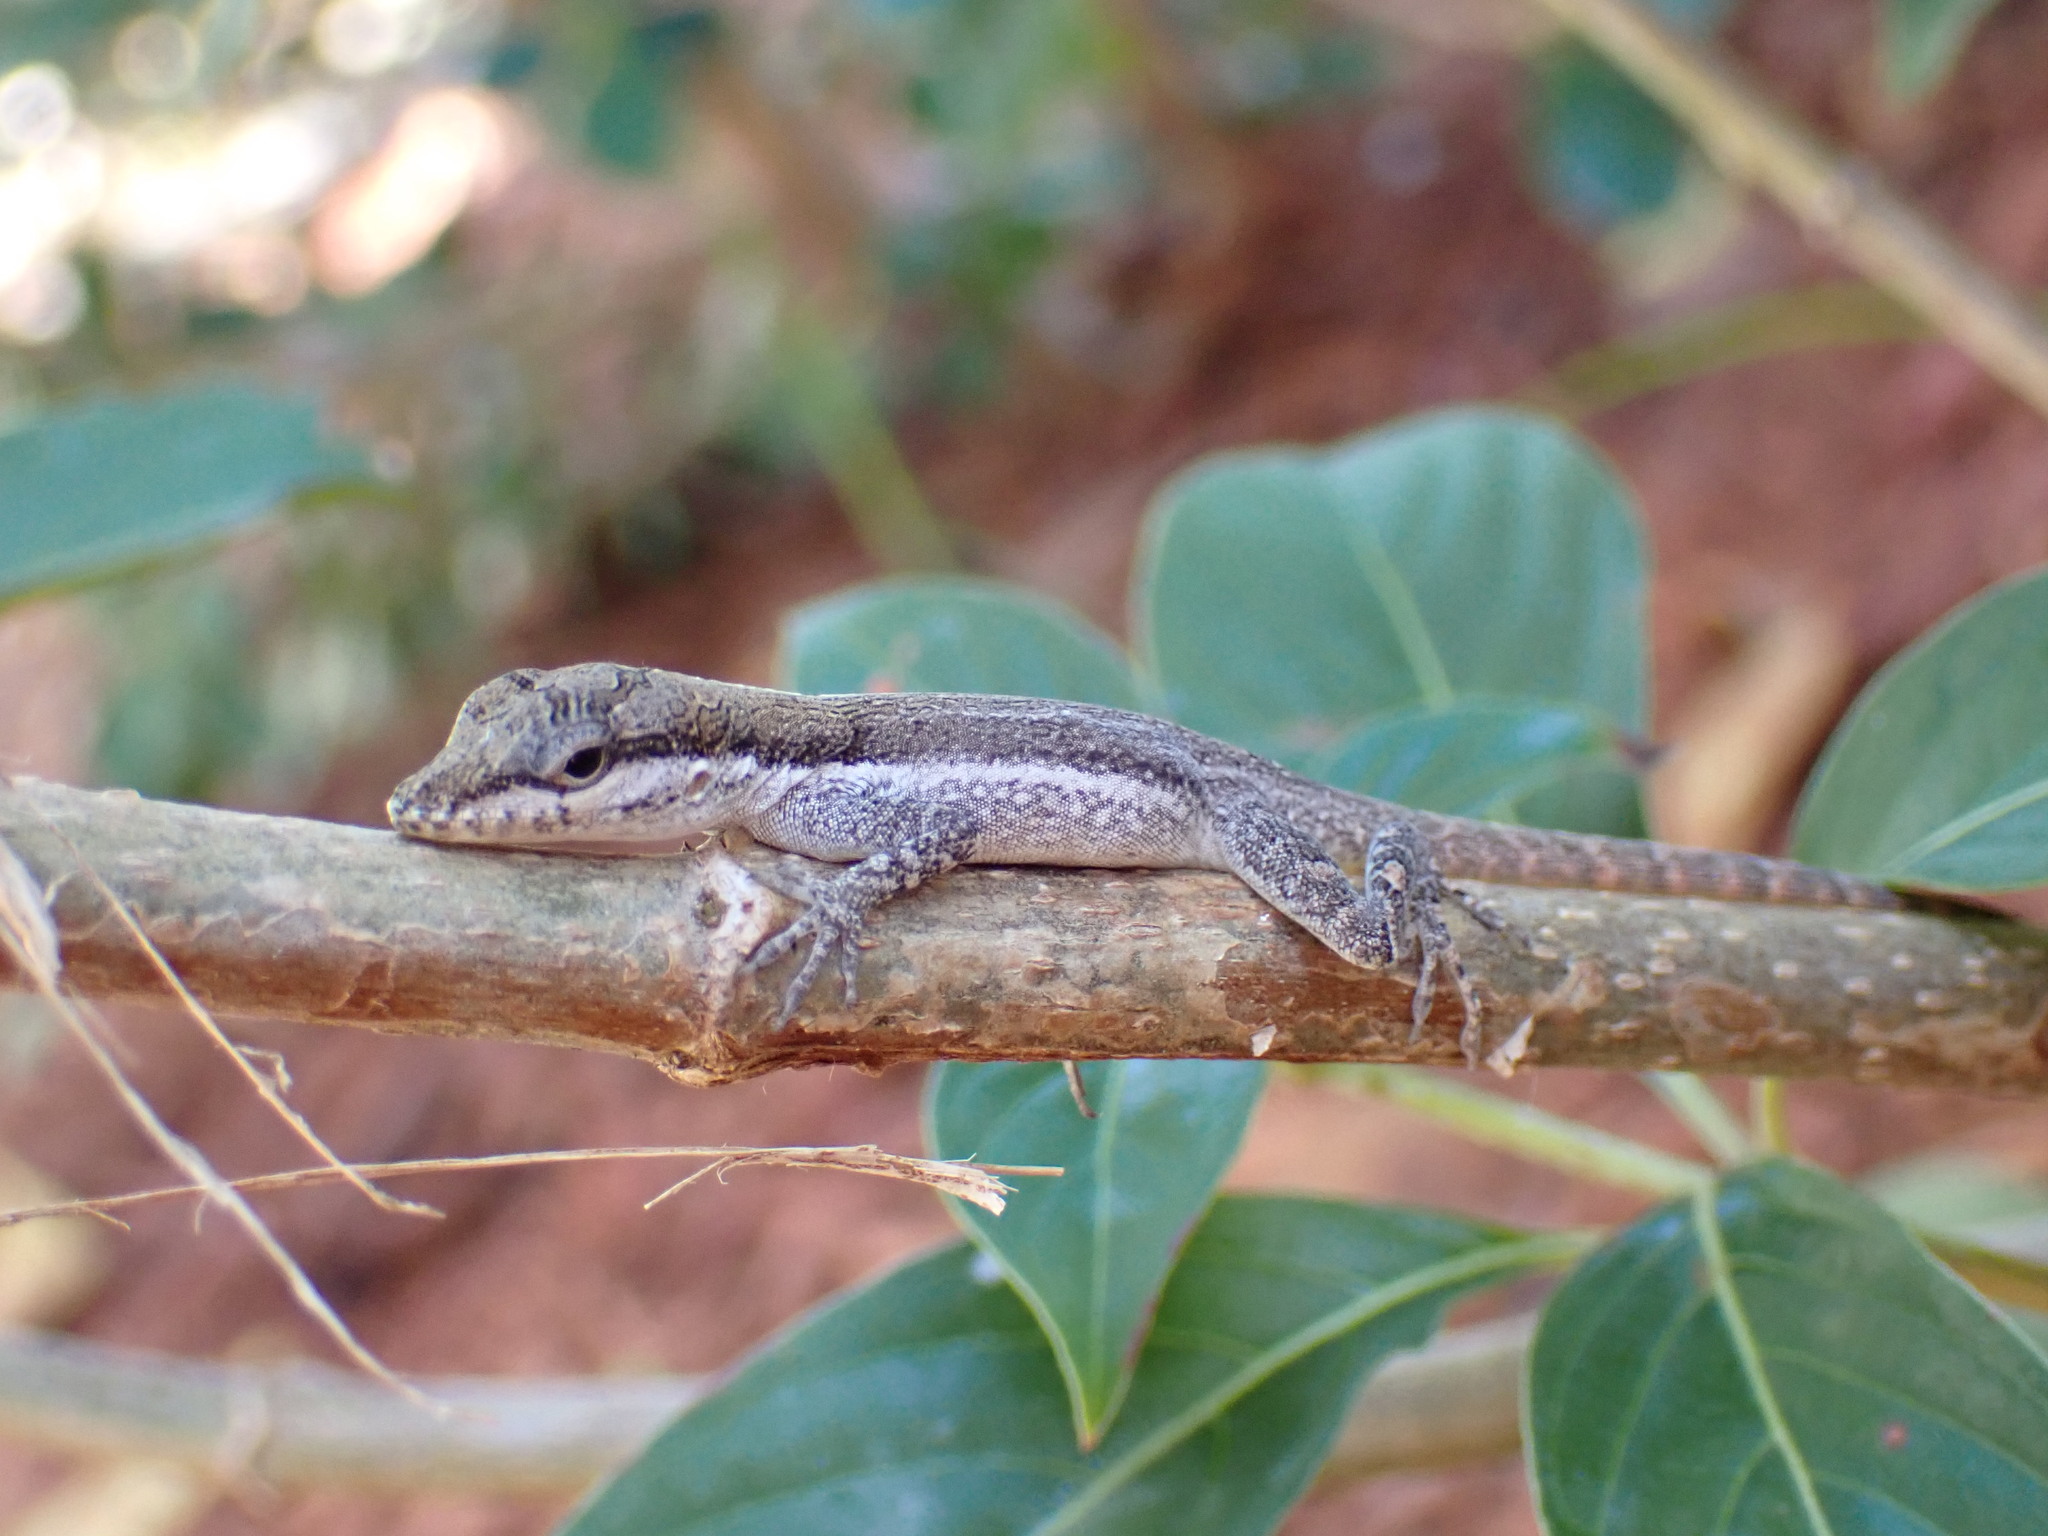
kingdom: Animalia
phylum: Chordata
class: Squamata
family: Dactyloidae
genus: Anolis
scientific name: Anolis scriptus
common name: Silver key anole
